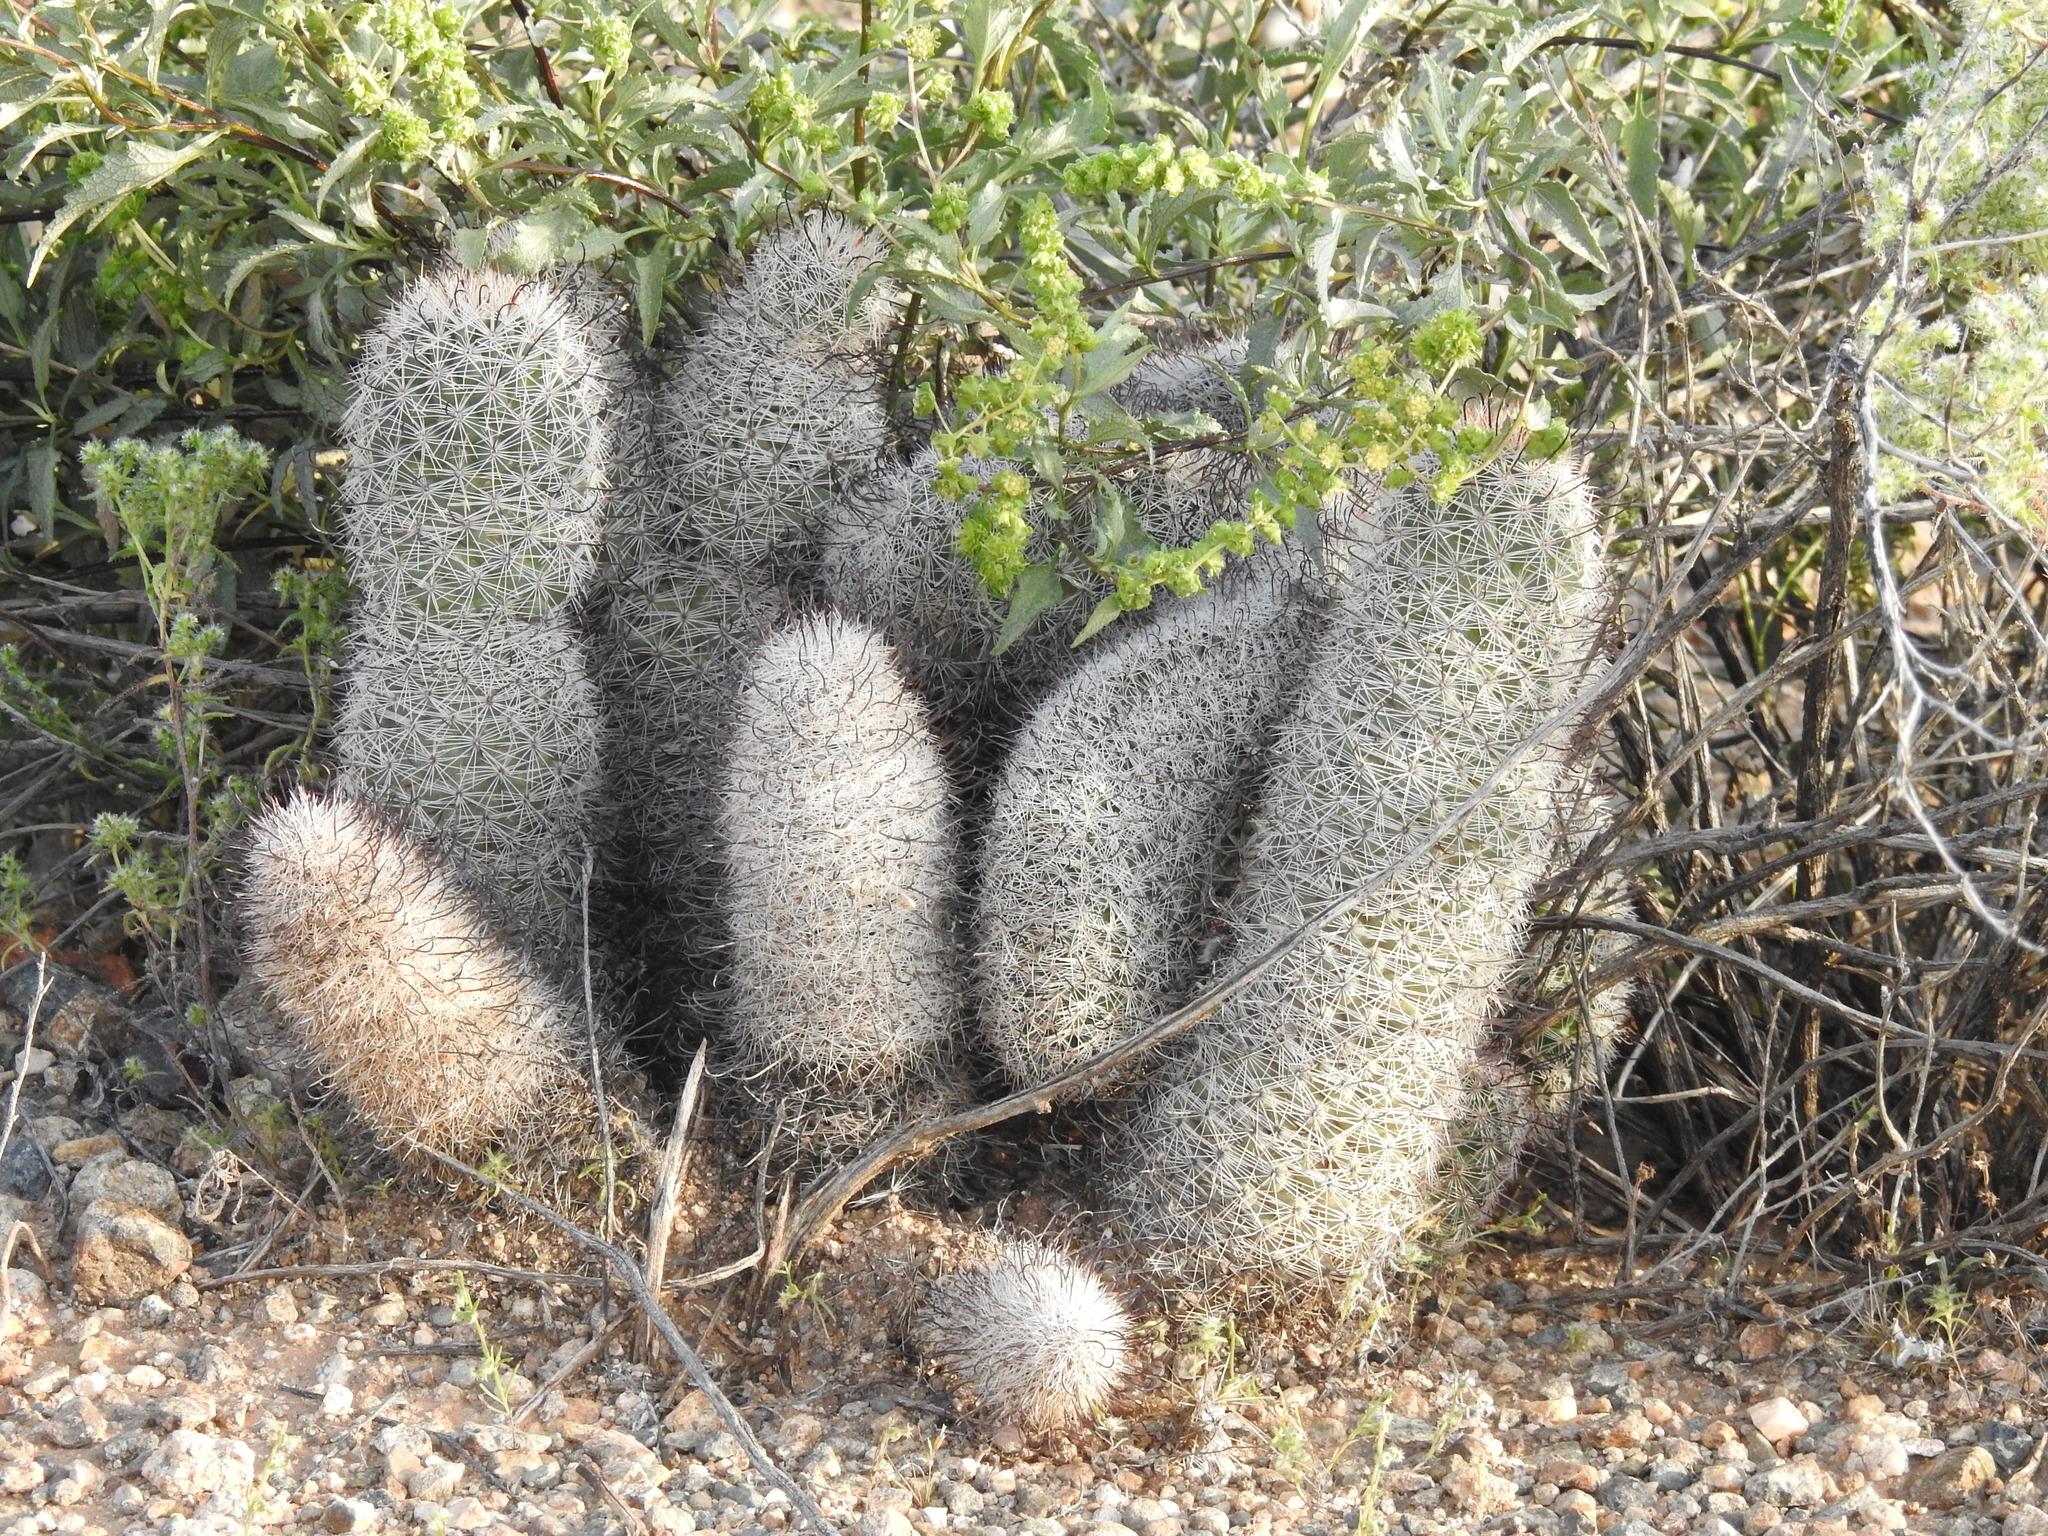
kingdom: Plantae
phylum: Tracheophyta
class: Magnoliopsida
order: Caryophyllales
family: Cactaceae
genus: Cochemiea
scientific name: Cochemiea grahamii
